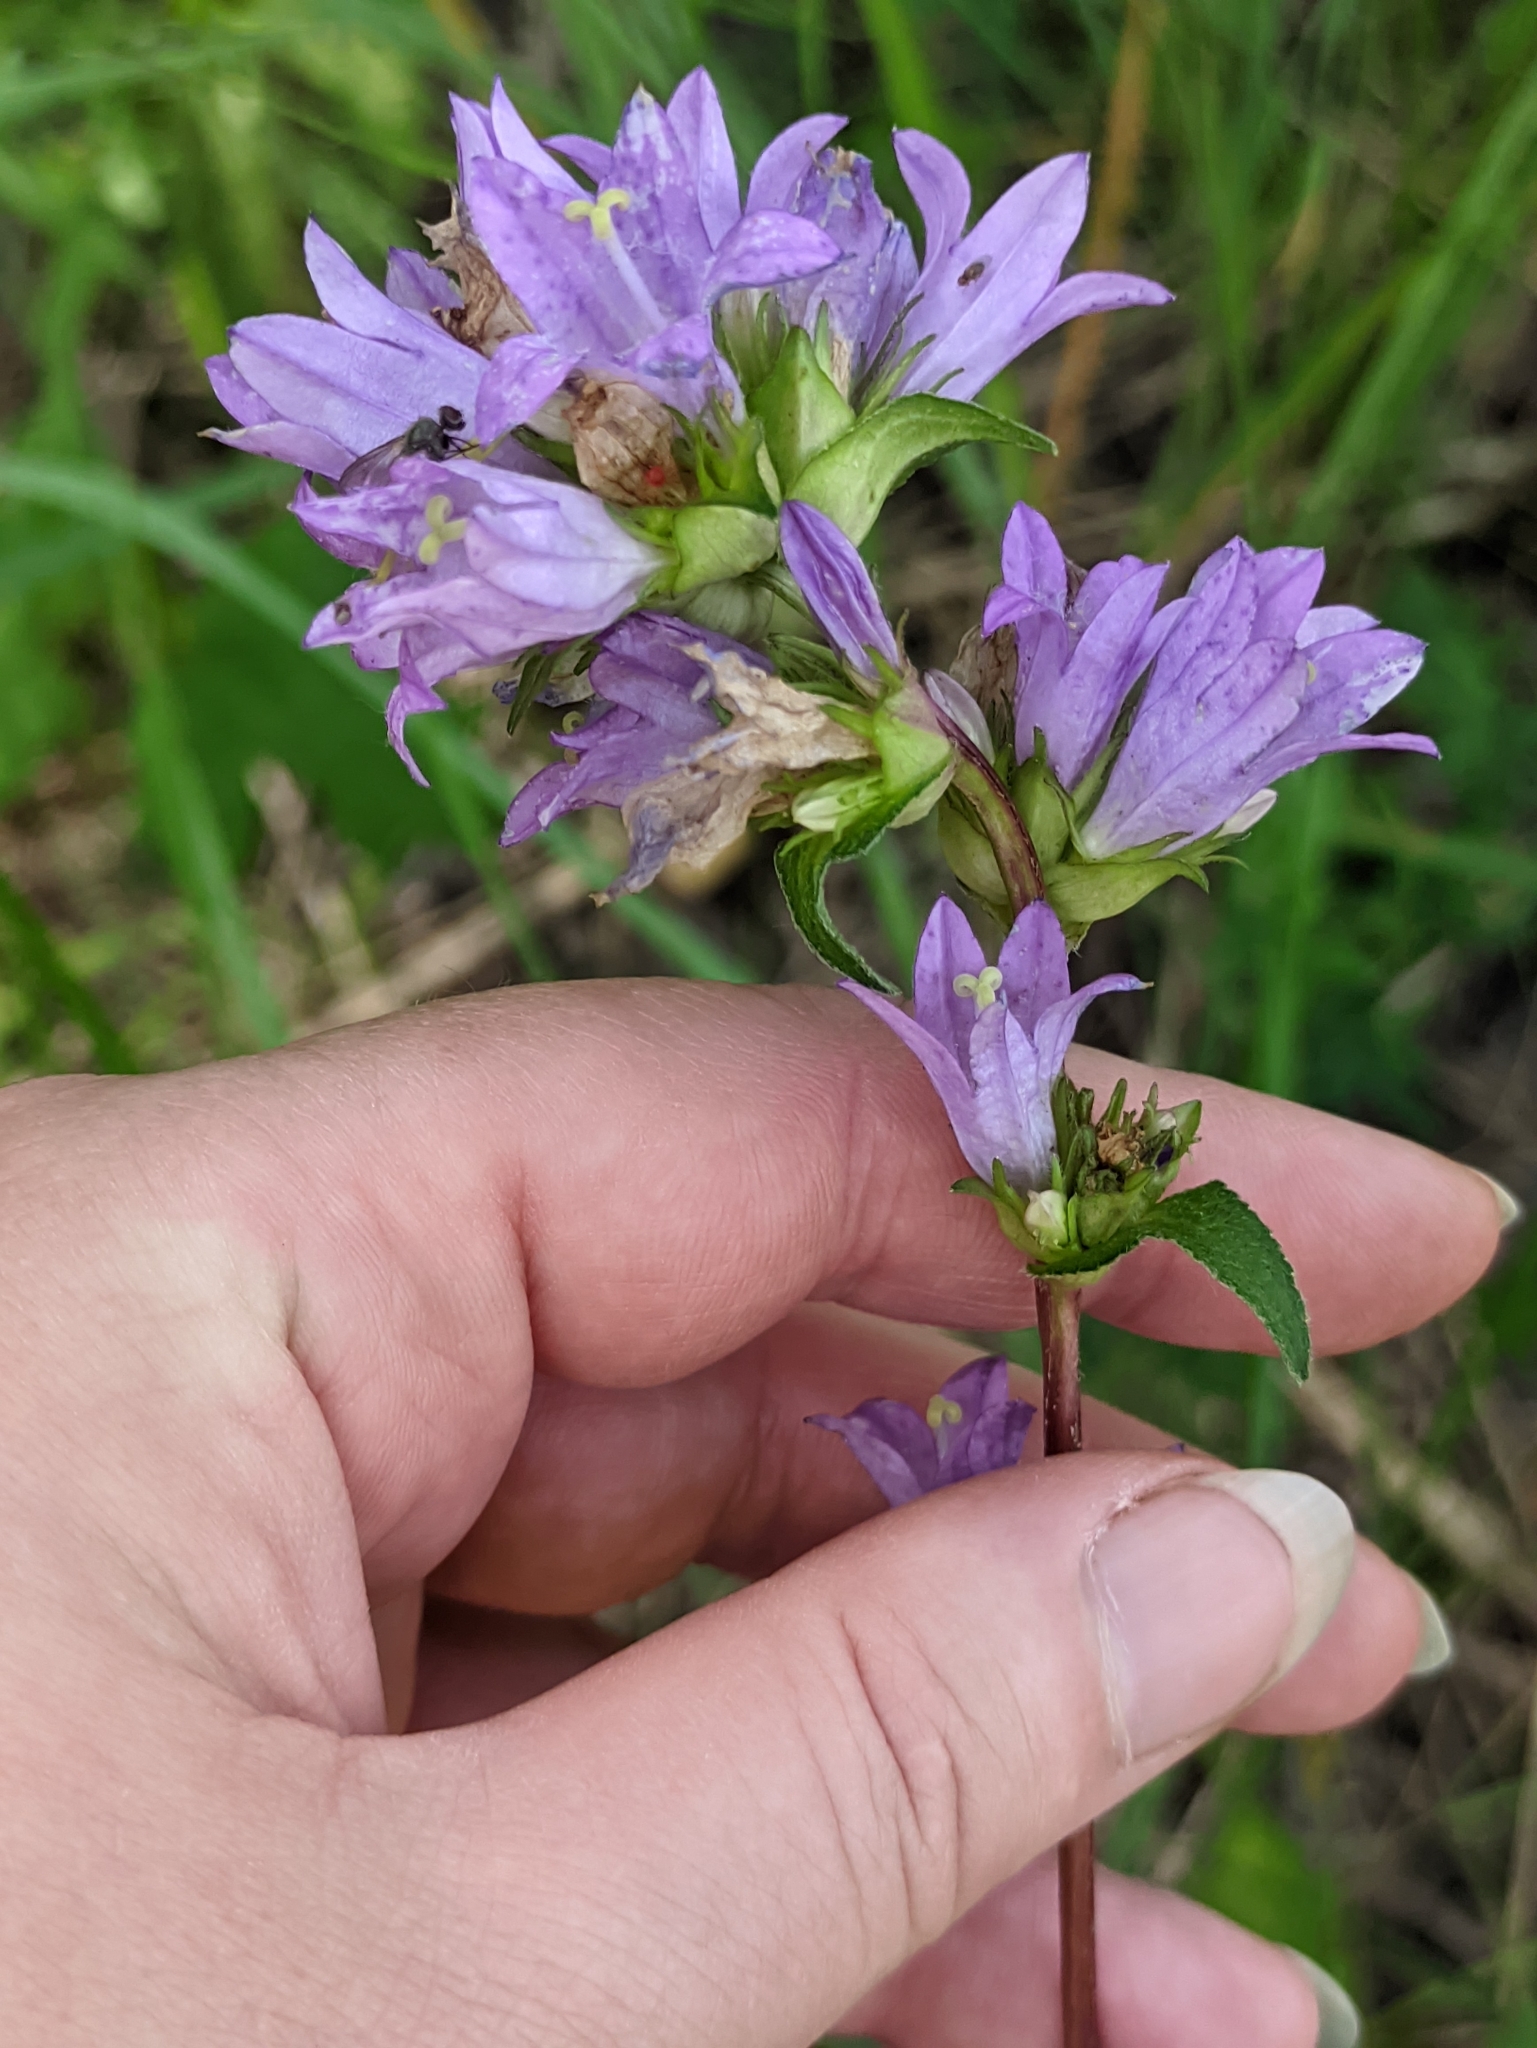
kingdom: Plantae
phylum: Tracheophyta
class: Magnoliopsida
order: Asterales
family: Campanulaceae
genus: Campanula
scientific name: Campanula glomerata
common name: Clustered bellflower
